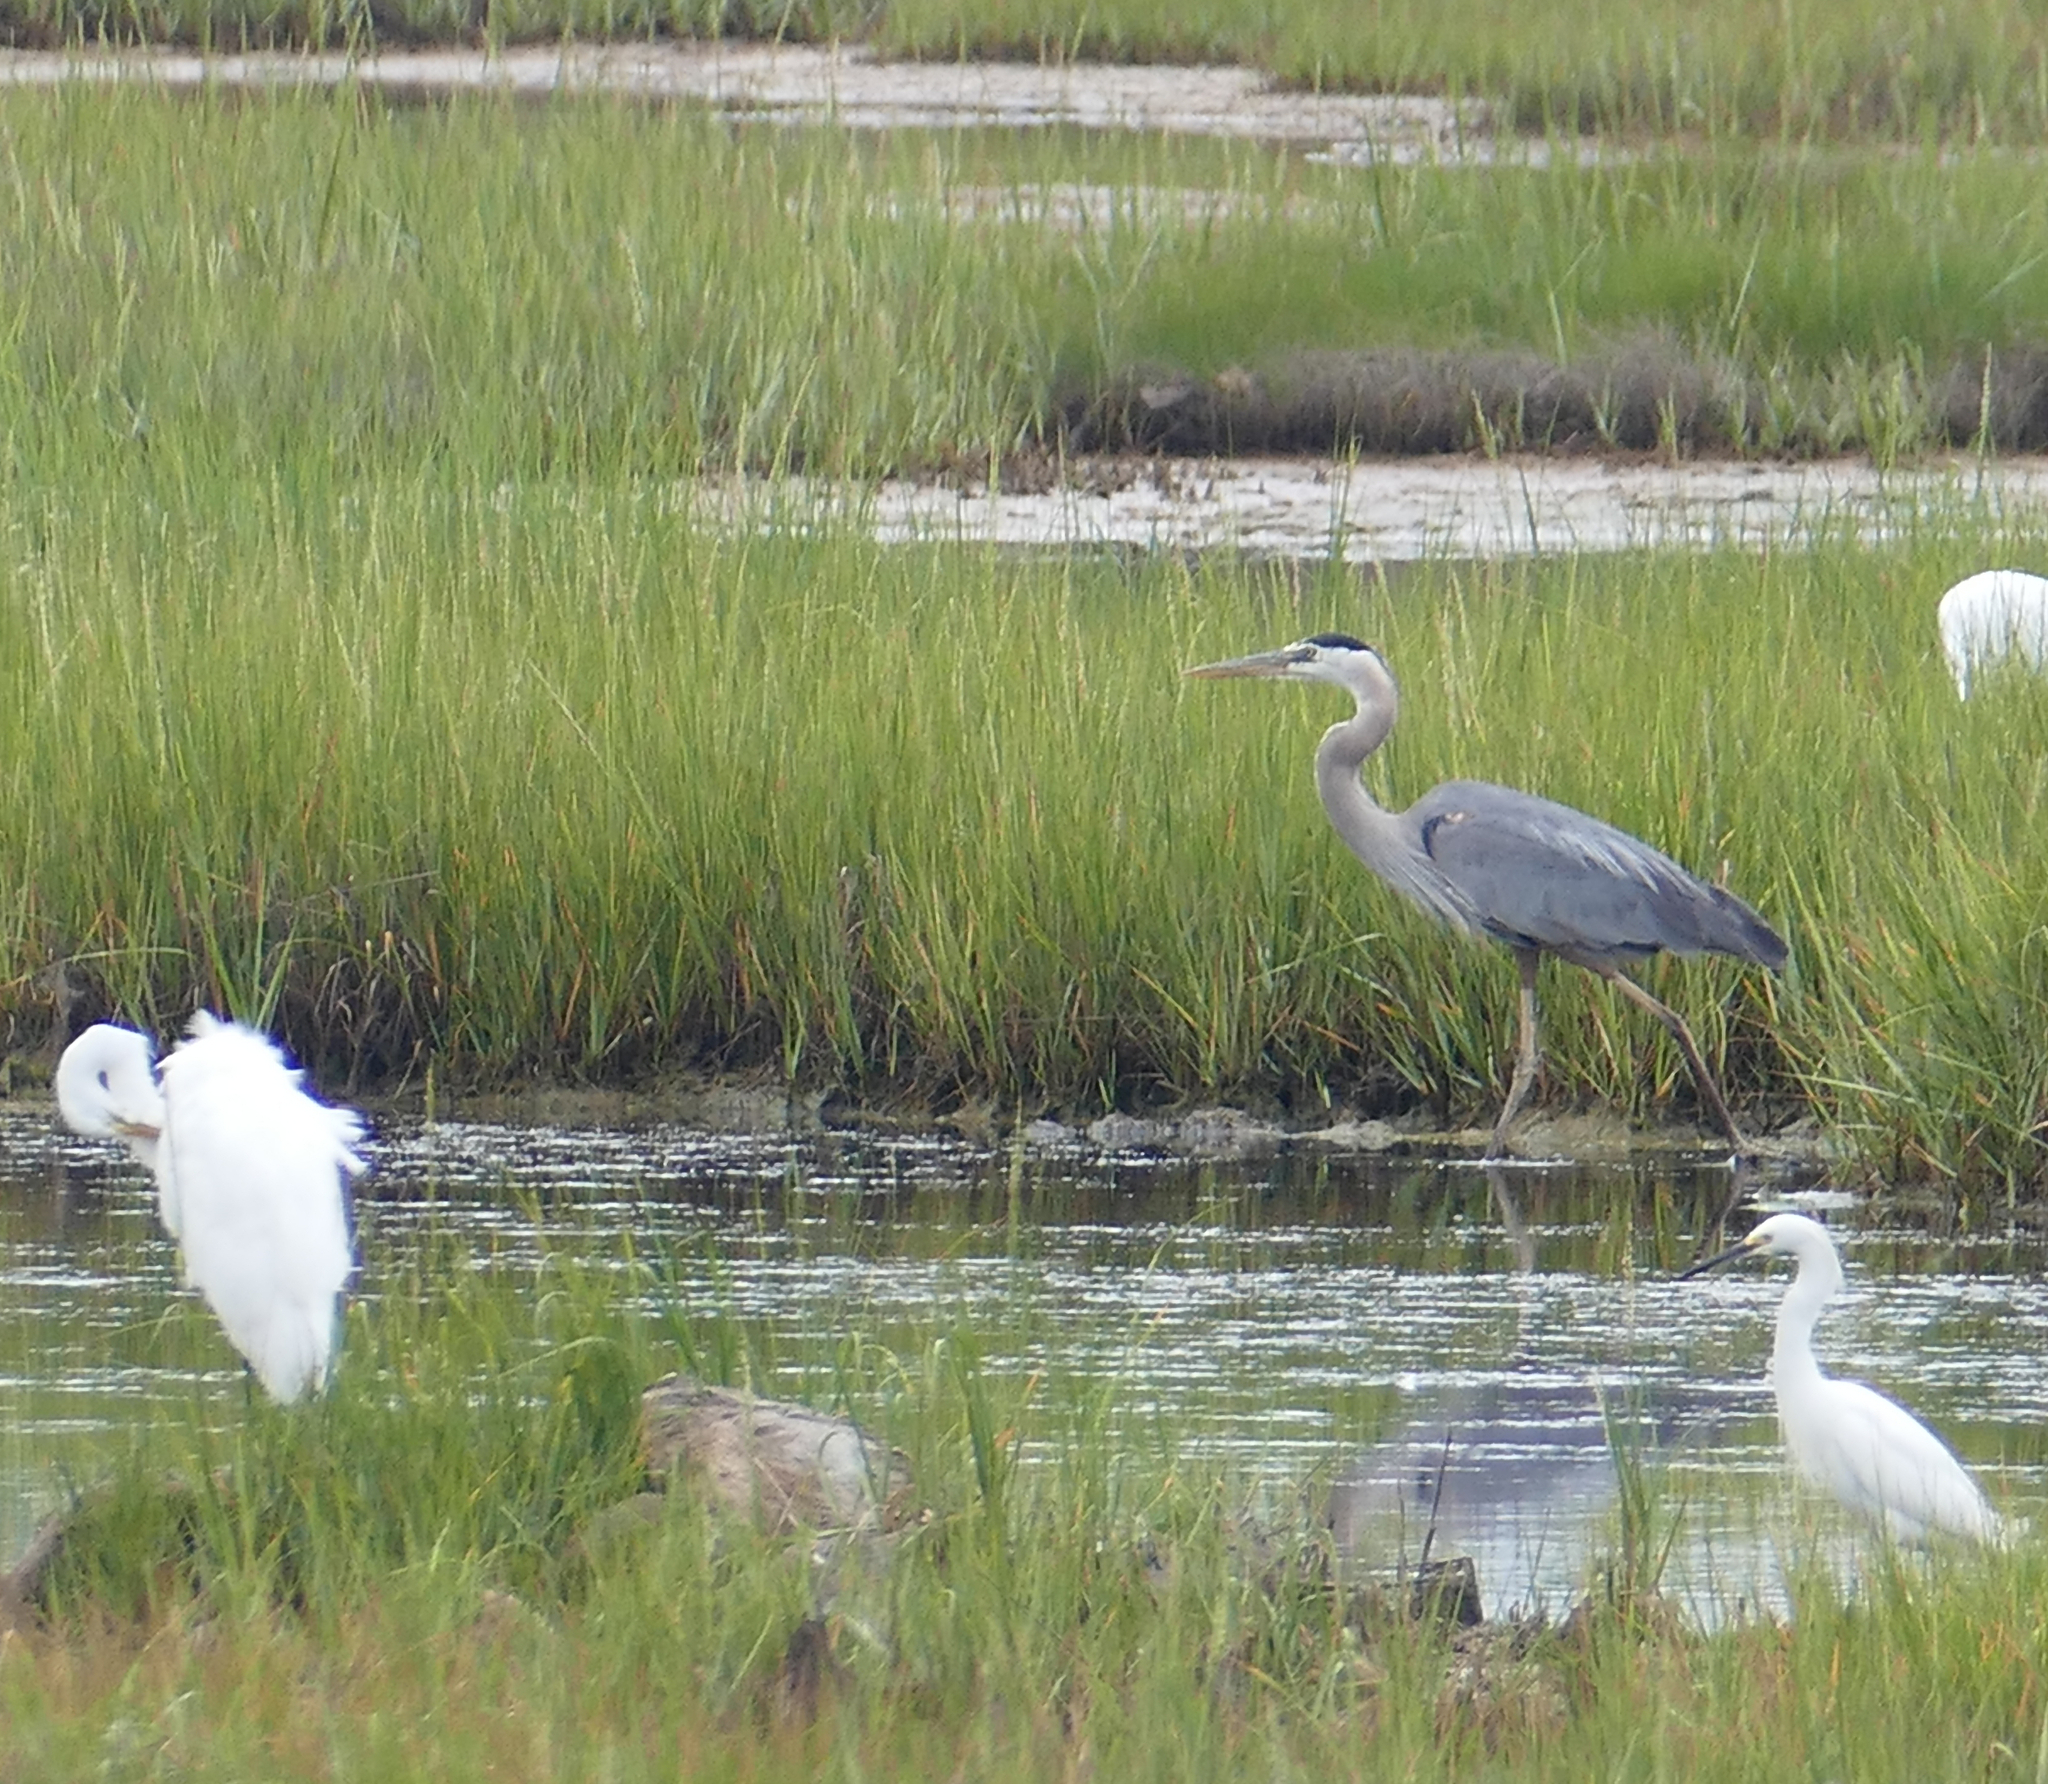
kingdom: Animalia
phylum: Chordata
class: Aves
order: Pelecaniformes
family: Ardeidae
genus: Ardea
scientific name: Ardea herodias
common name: Great blue heron
